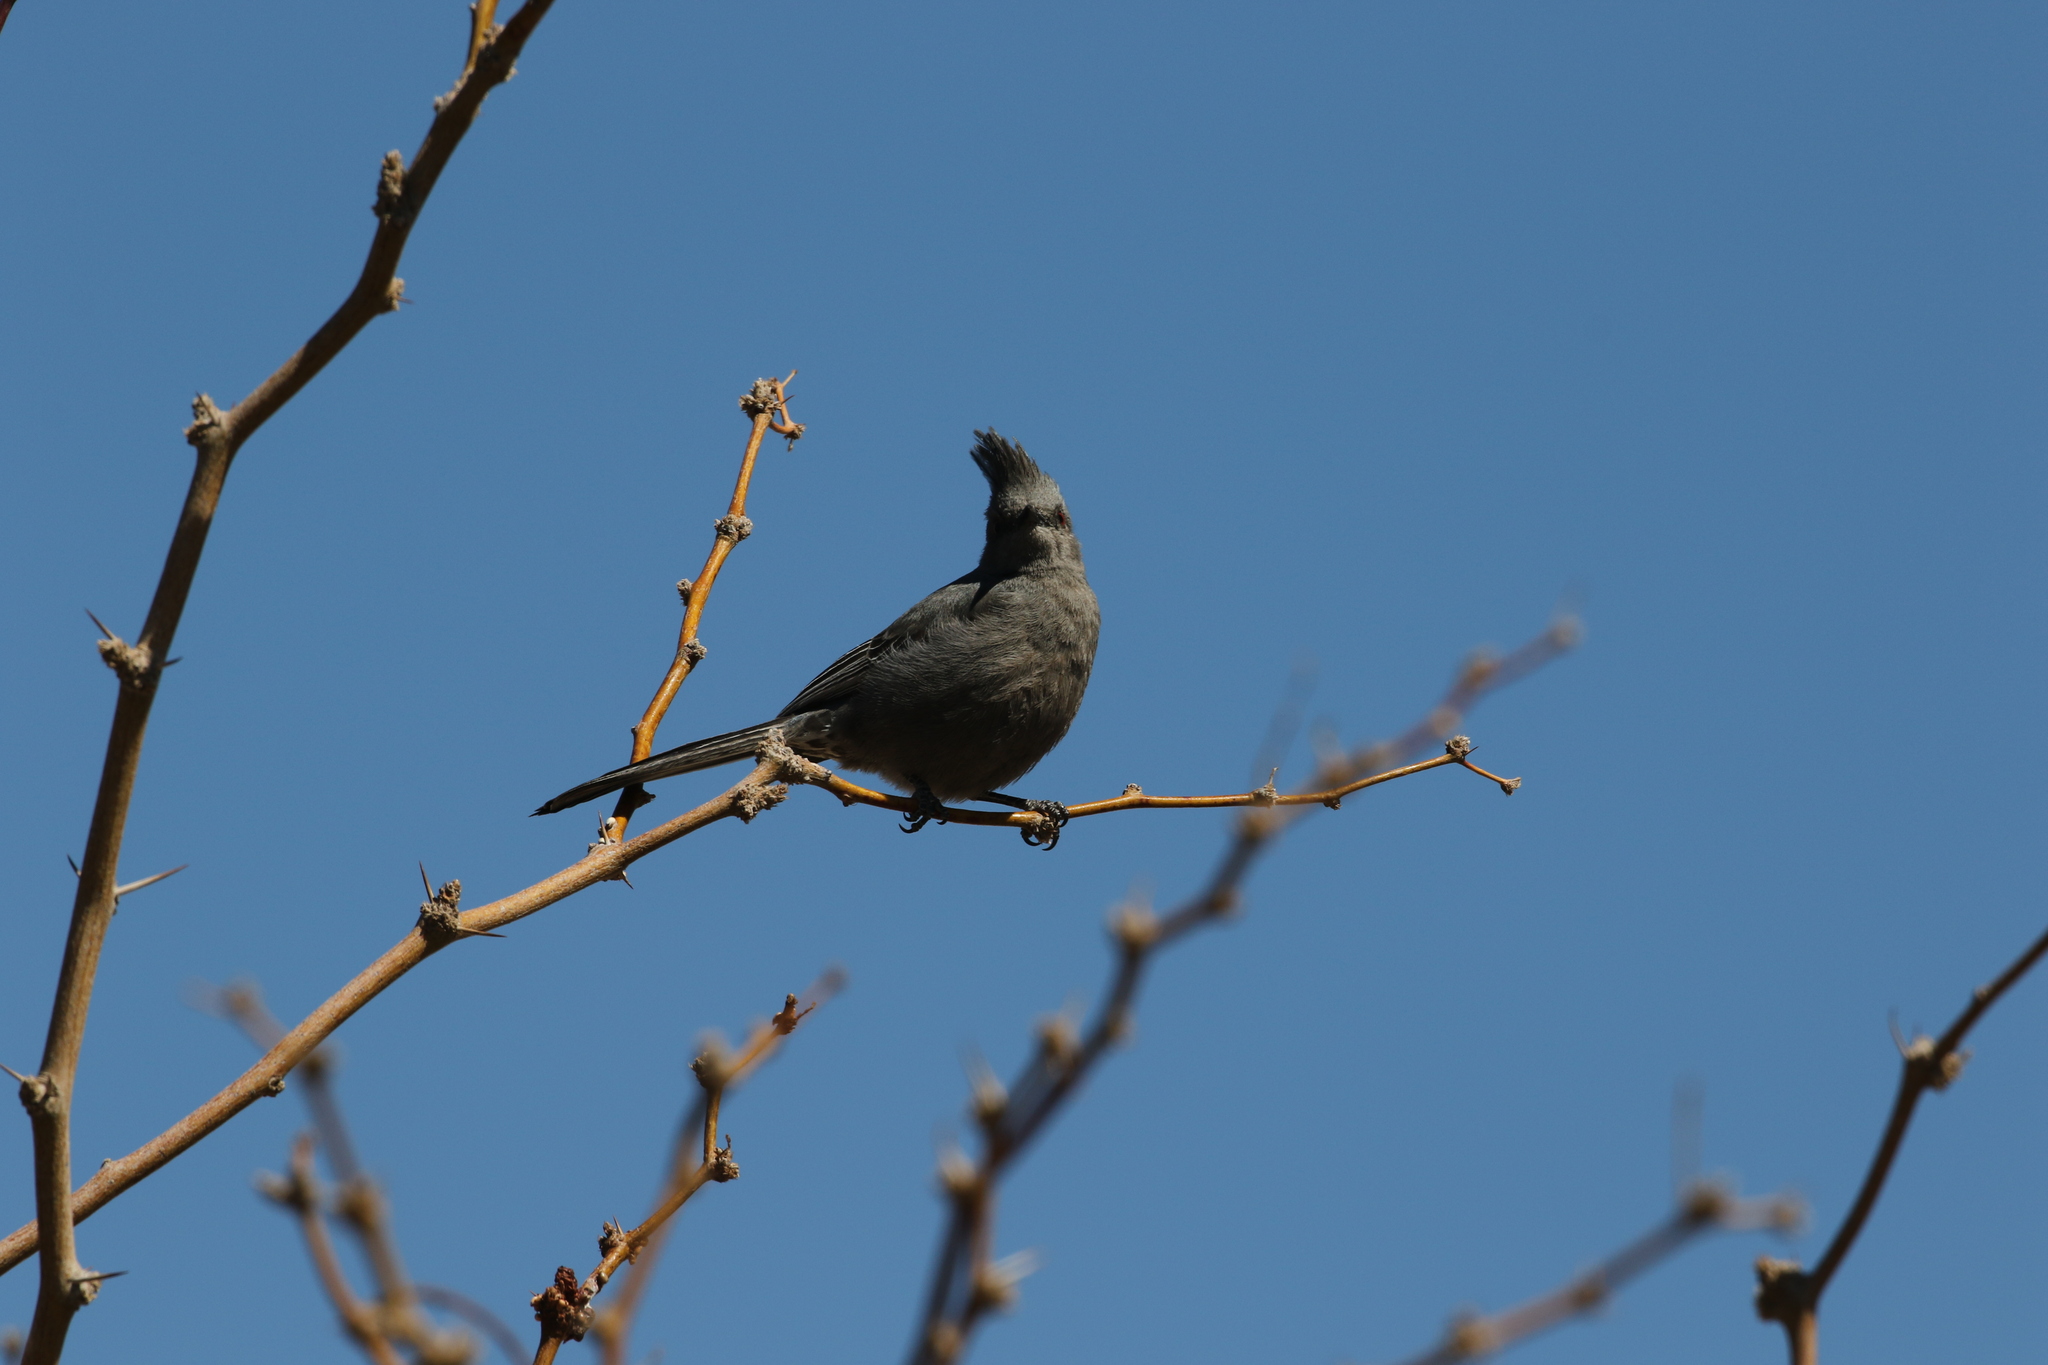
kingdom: Animalia
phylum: Chordata
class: Aves
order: Passeriformes
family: Ptilogonatidae
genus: Phainopepla
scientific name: Phainopepla nitens
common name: Phainopepla
